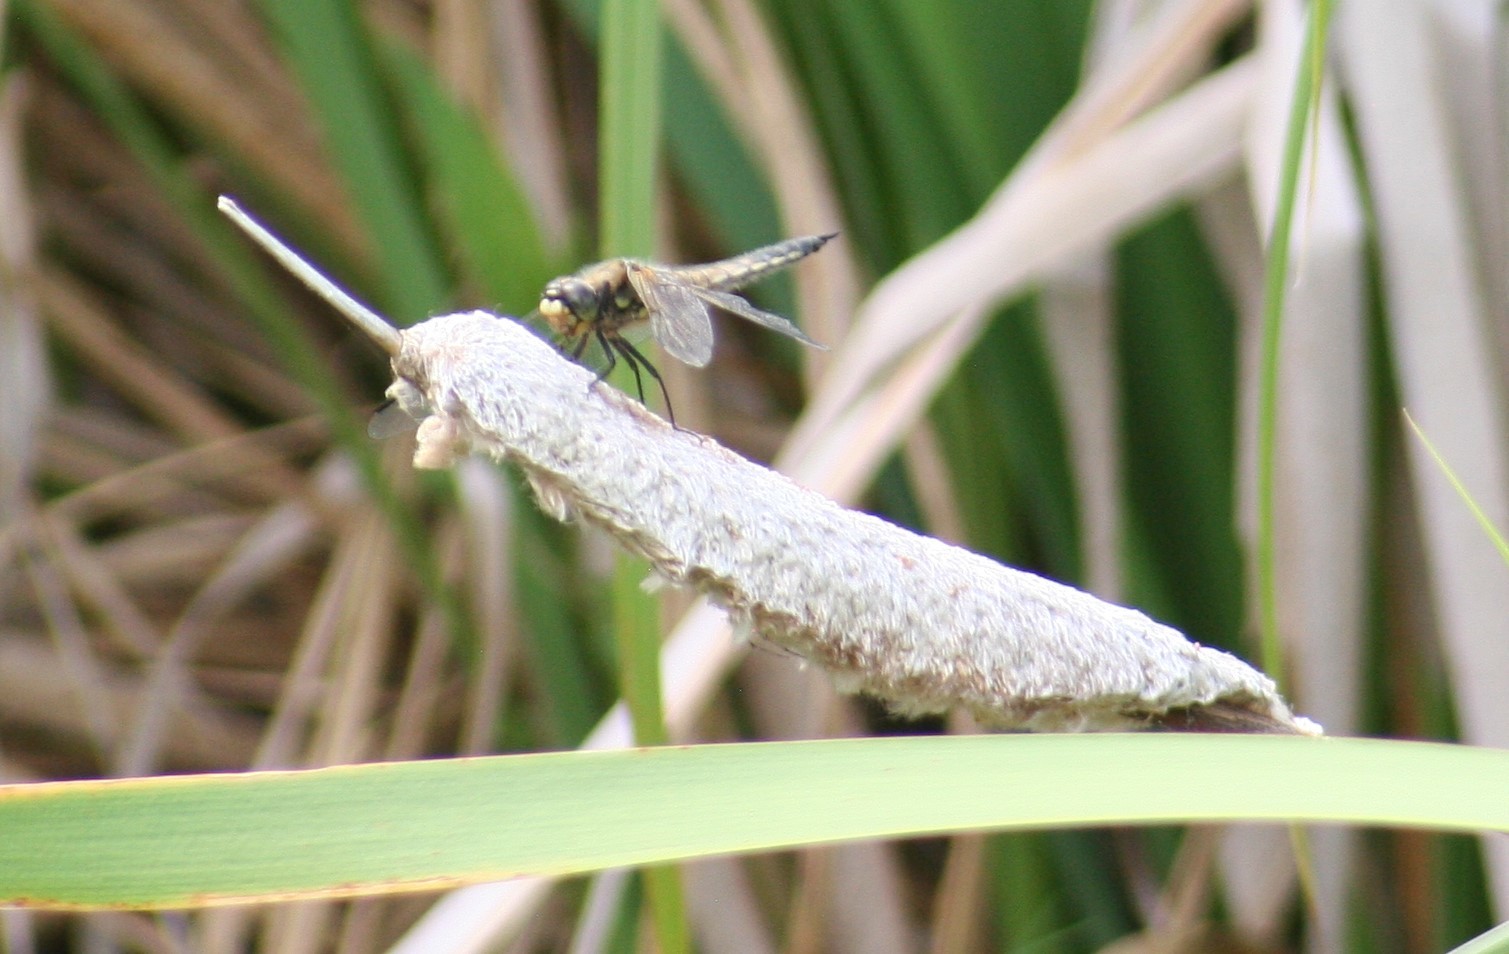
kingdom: Animalia
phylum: Arthropoda
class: Insecta
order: Odonata
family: Libellulidae
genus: Libellula
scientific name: Libellula quadrimaculata
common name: Four-spotted chaser
